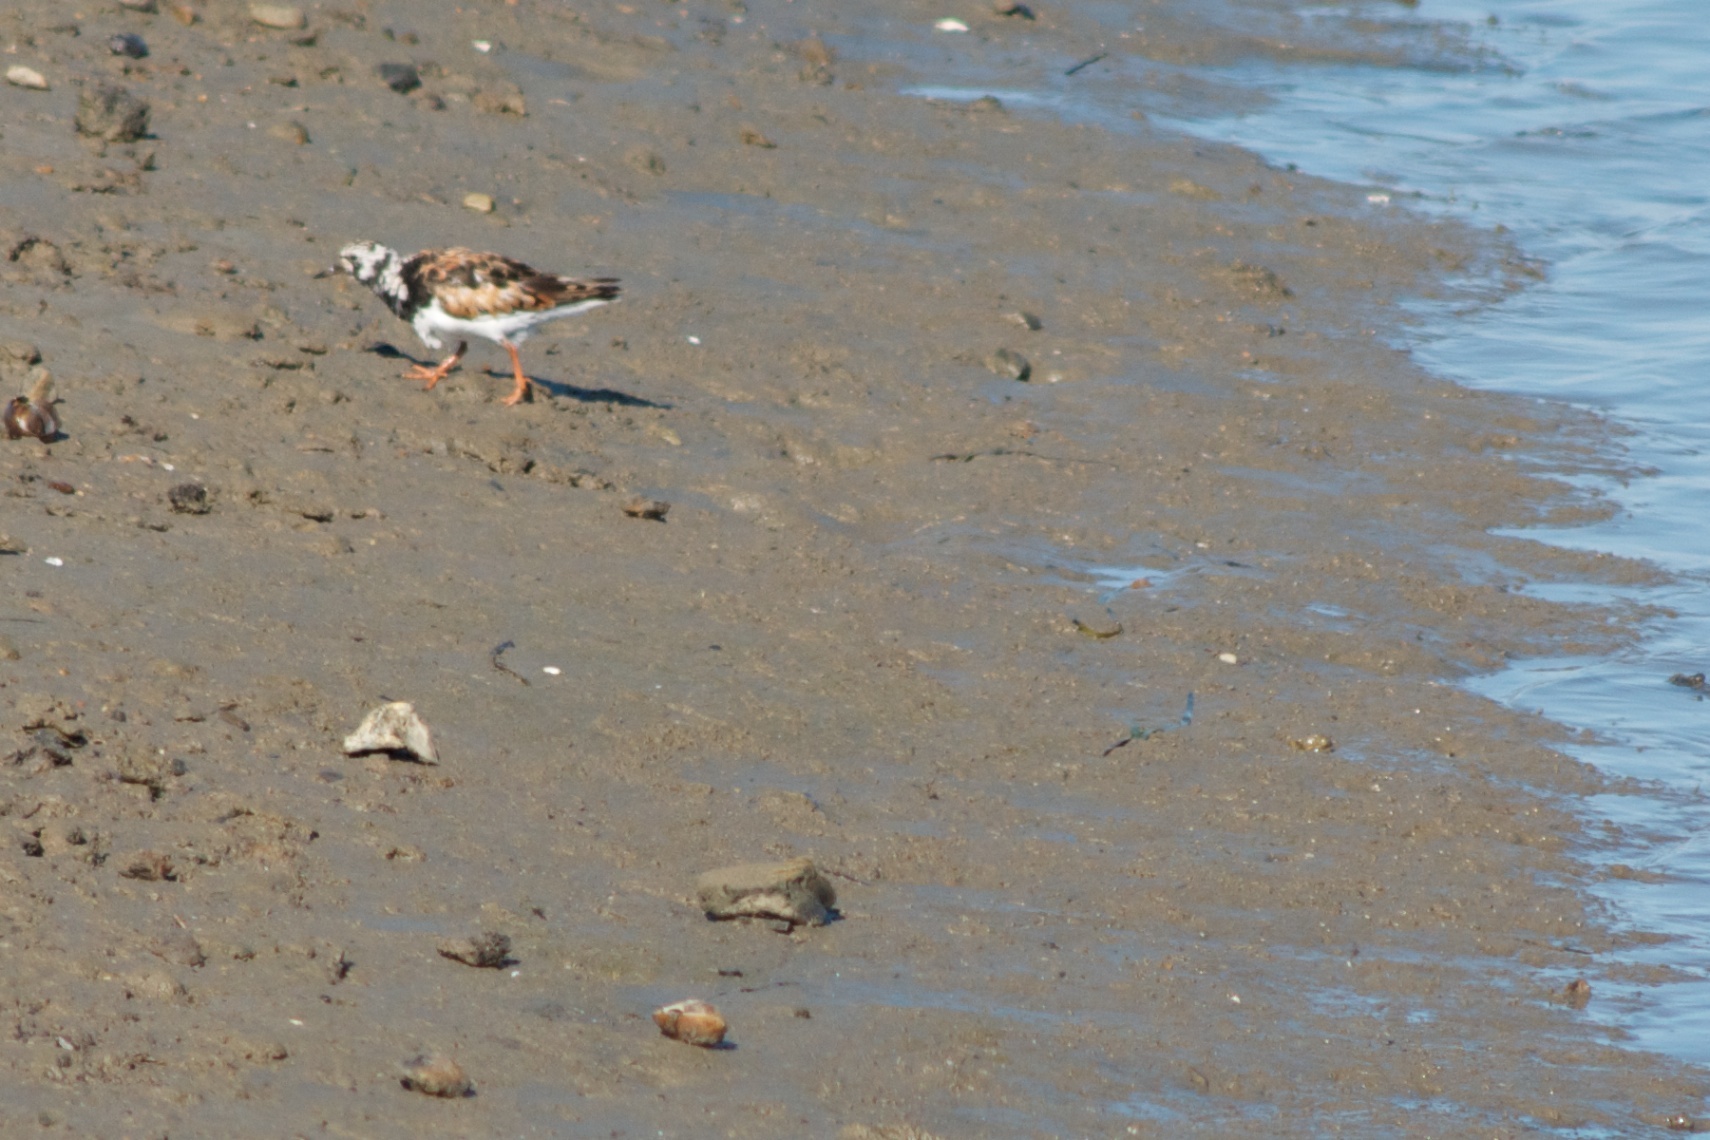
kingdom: Animalia
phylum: Chordata
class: Aves
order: Charadriiformes
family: Scolopacidae
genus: Arenaria
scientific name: Arenaria interpres
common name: Ruddy turnstone
